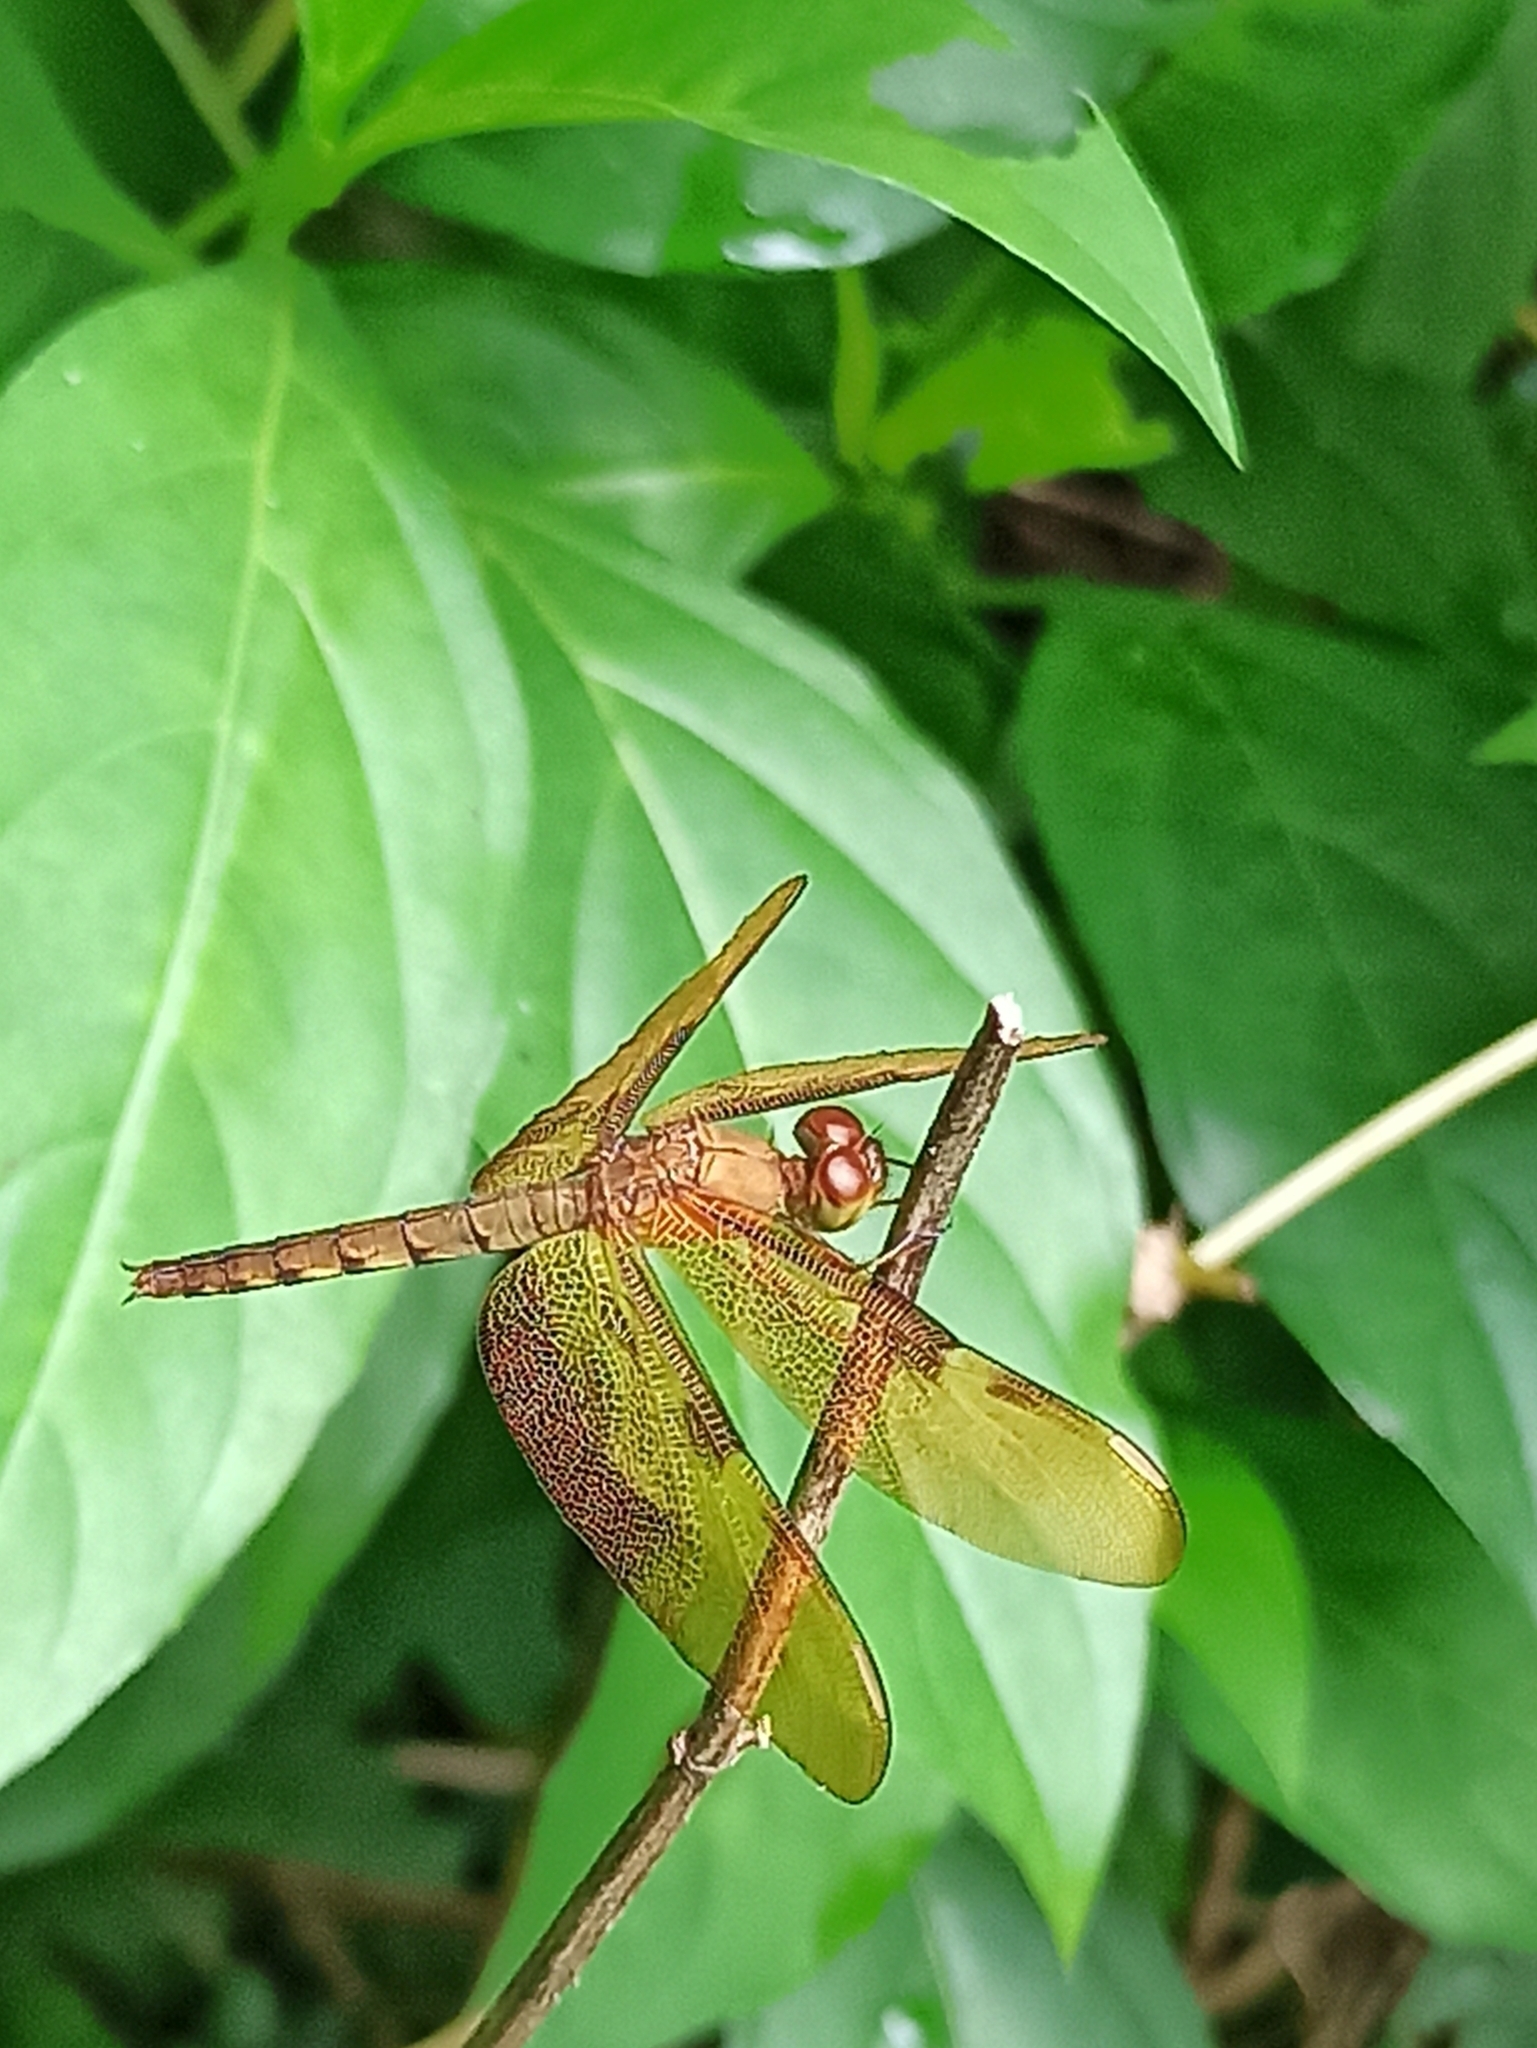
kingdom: Animalia
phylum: Arthropoda
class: Insecta
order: Odonata
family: Libellulidae
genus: Neurothemis
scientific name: Neurothemis fulvia
